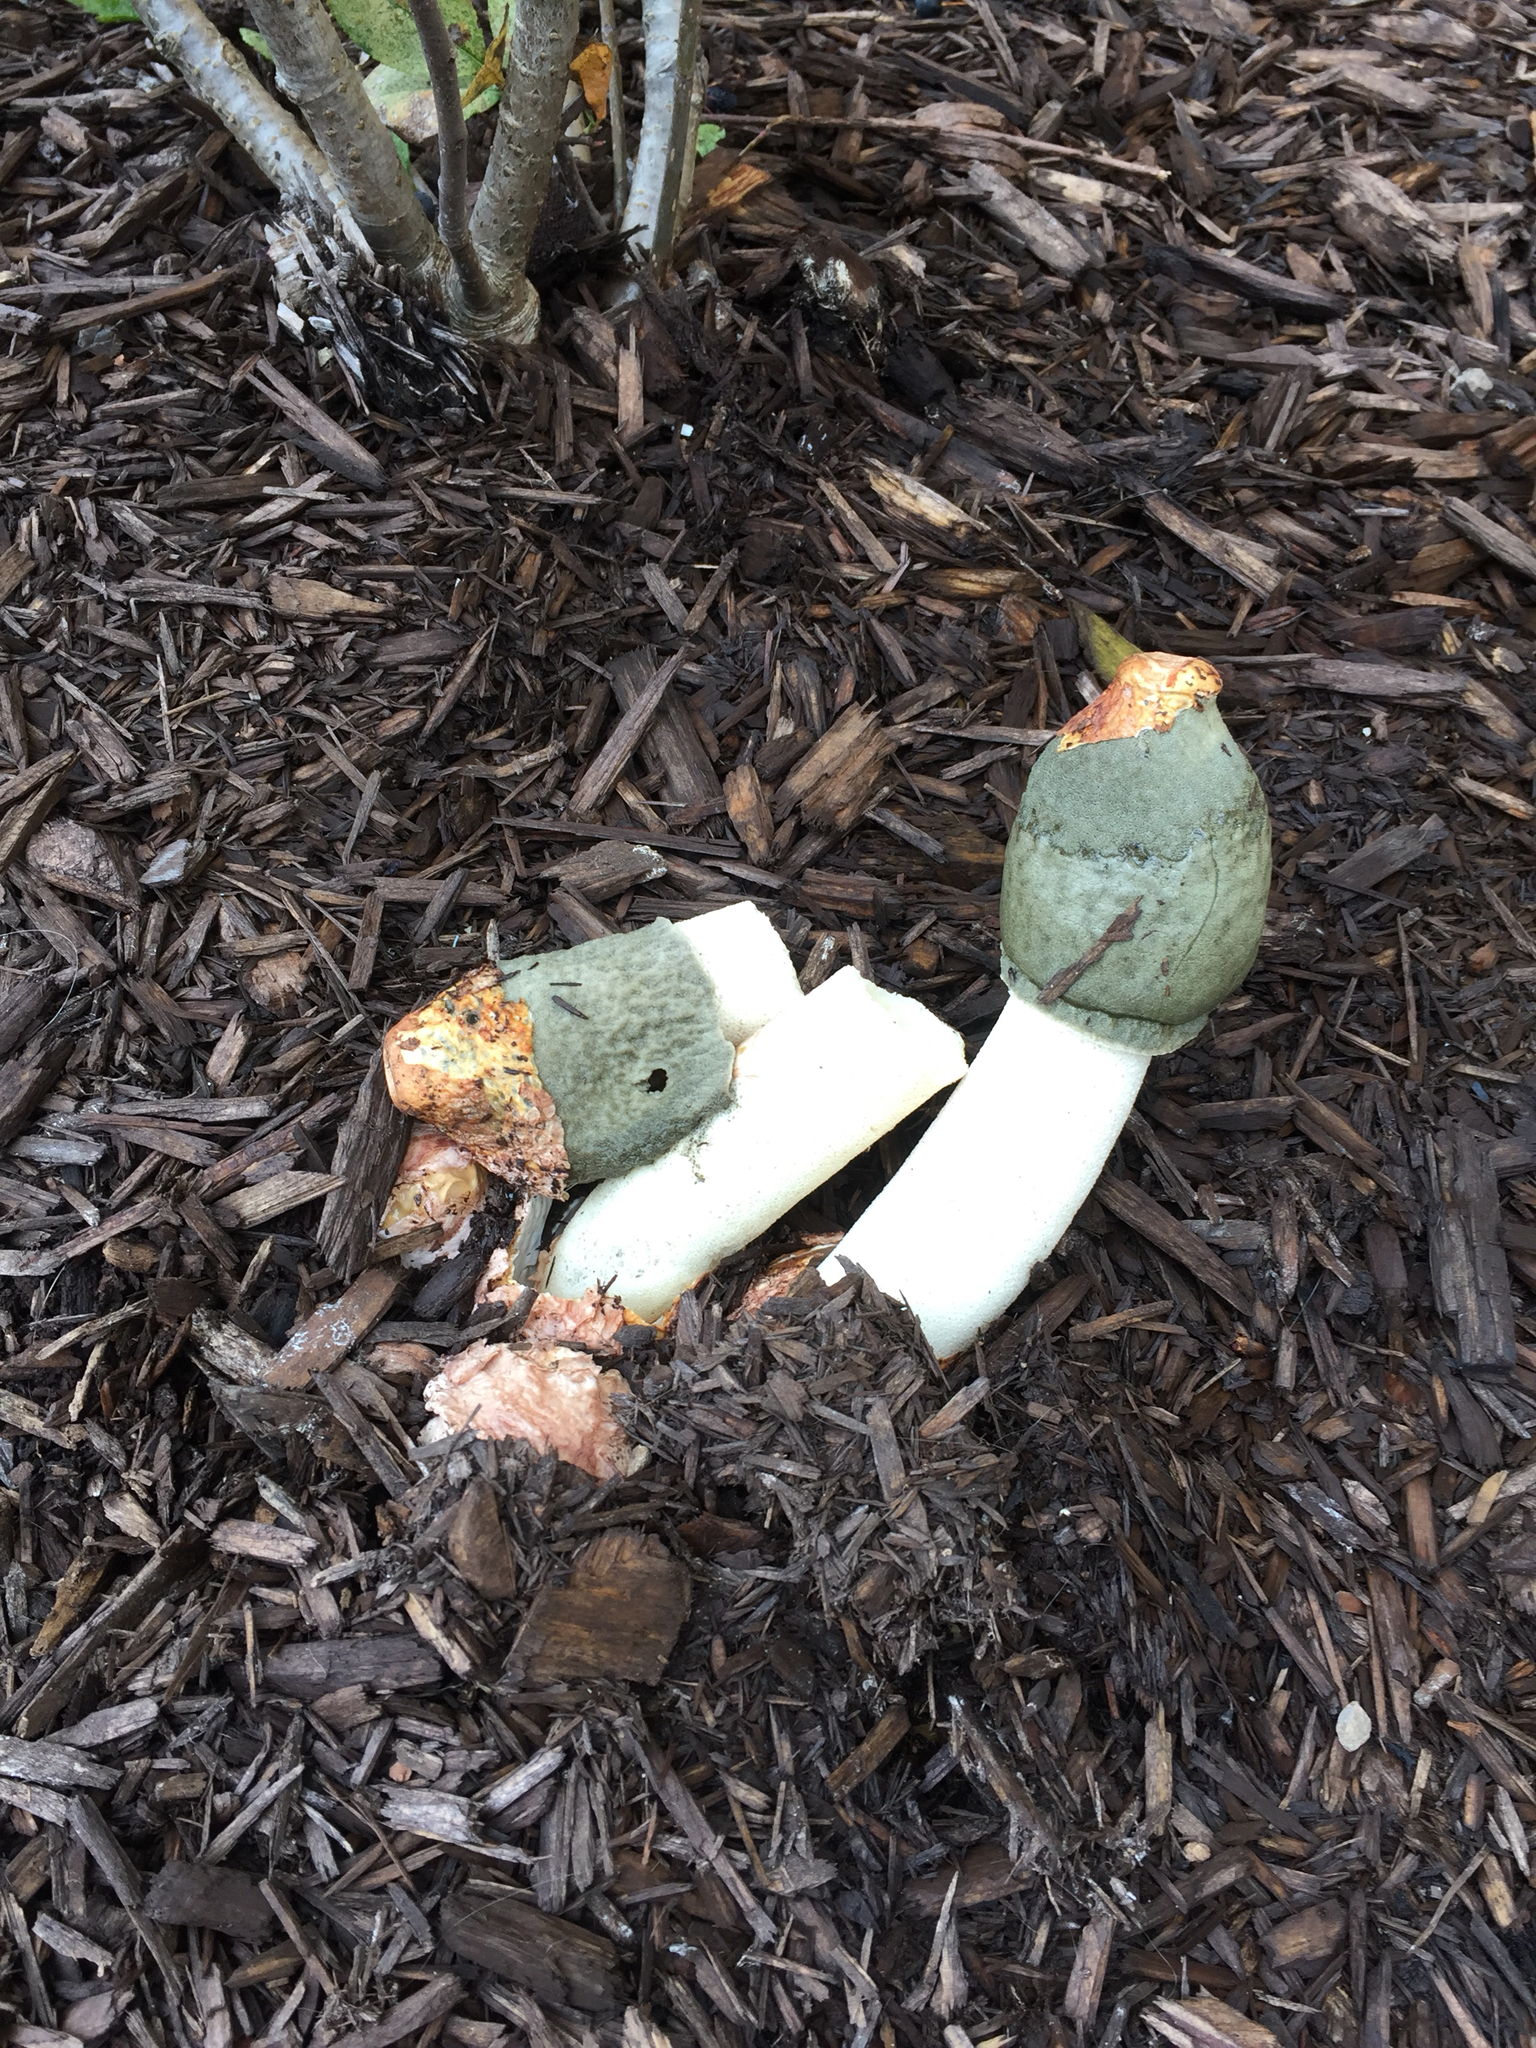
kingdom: Fungi
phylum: Basidiomycota
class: Agaricomycetes
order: Phallales
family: Phallaceae
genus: Phallus
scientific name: Phallus ravenelii
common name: Ravenel's stinkhorn
